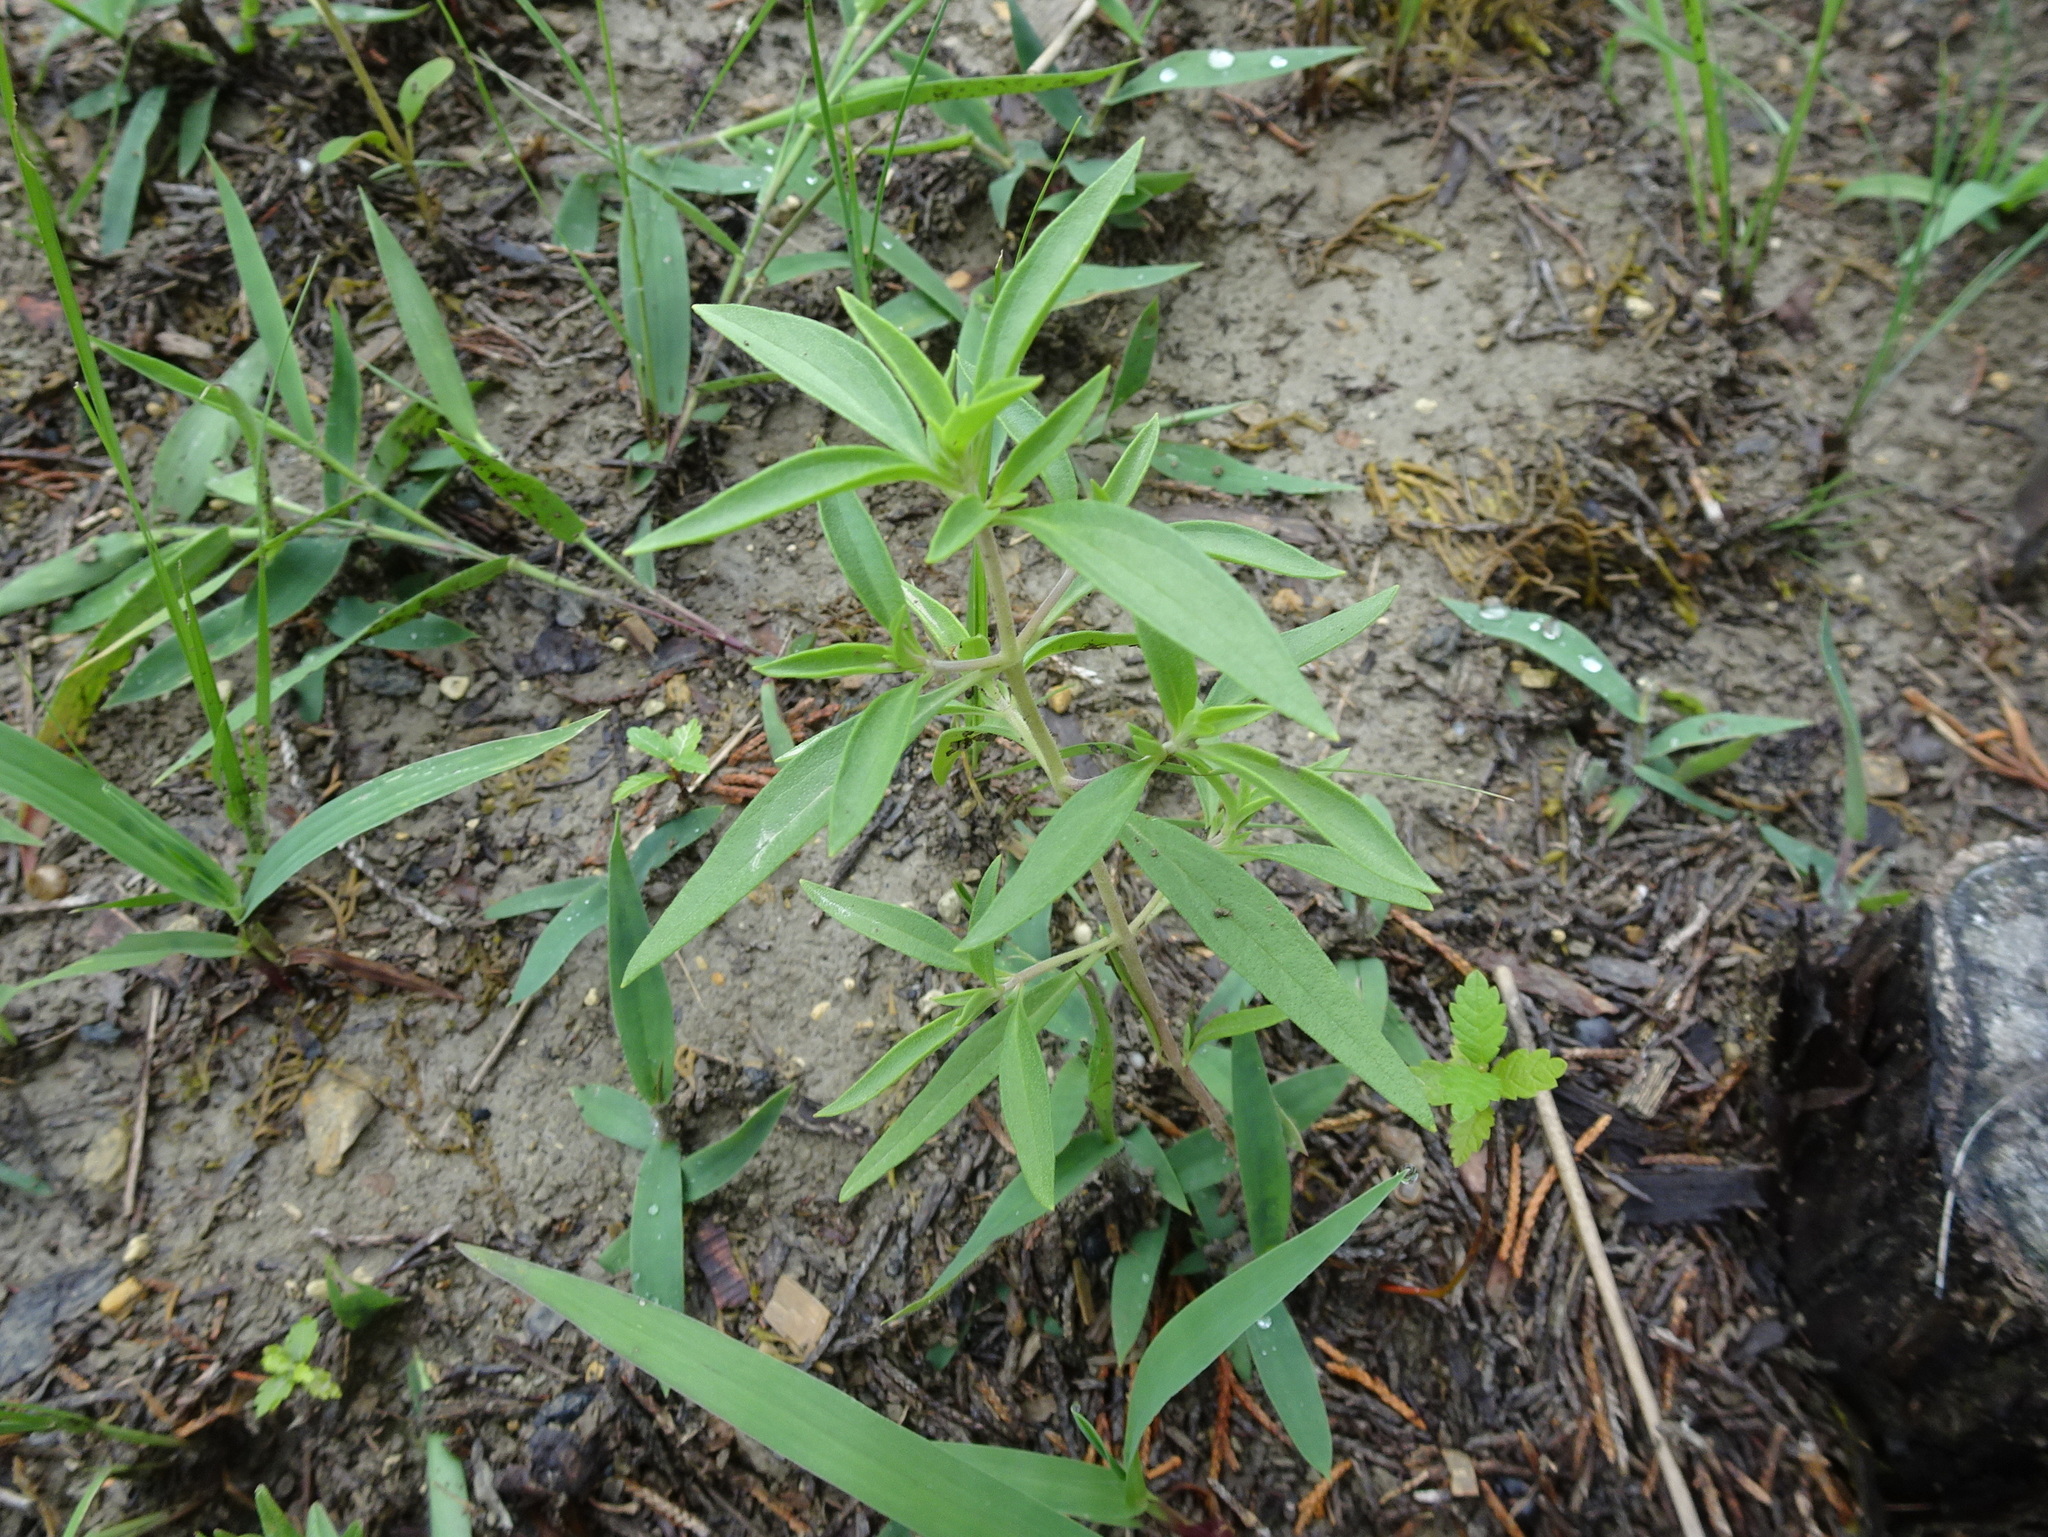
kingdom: Plantae
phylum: Tracheophyta
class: Magnoliopsida
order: Lamiales
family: Lamiaceae
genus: Trichostema
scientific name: Trichostema brachiatum
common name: False pennyroyal
